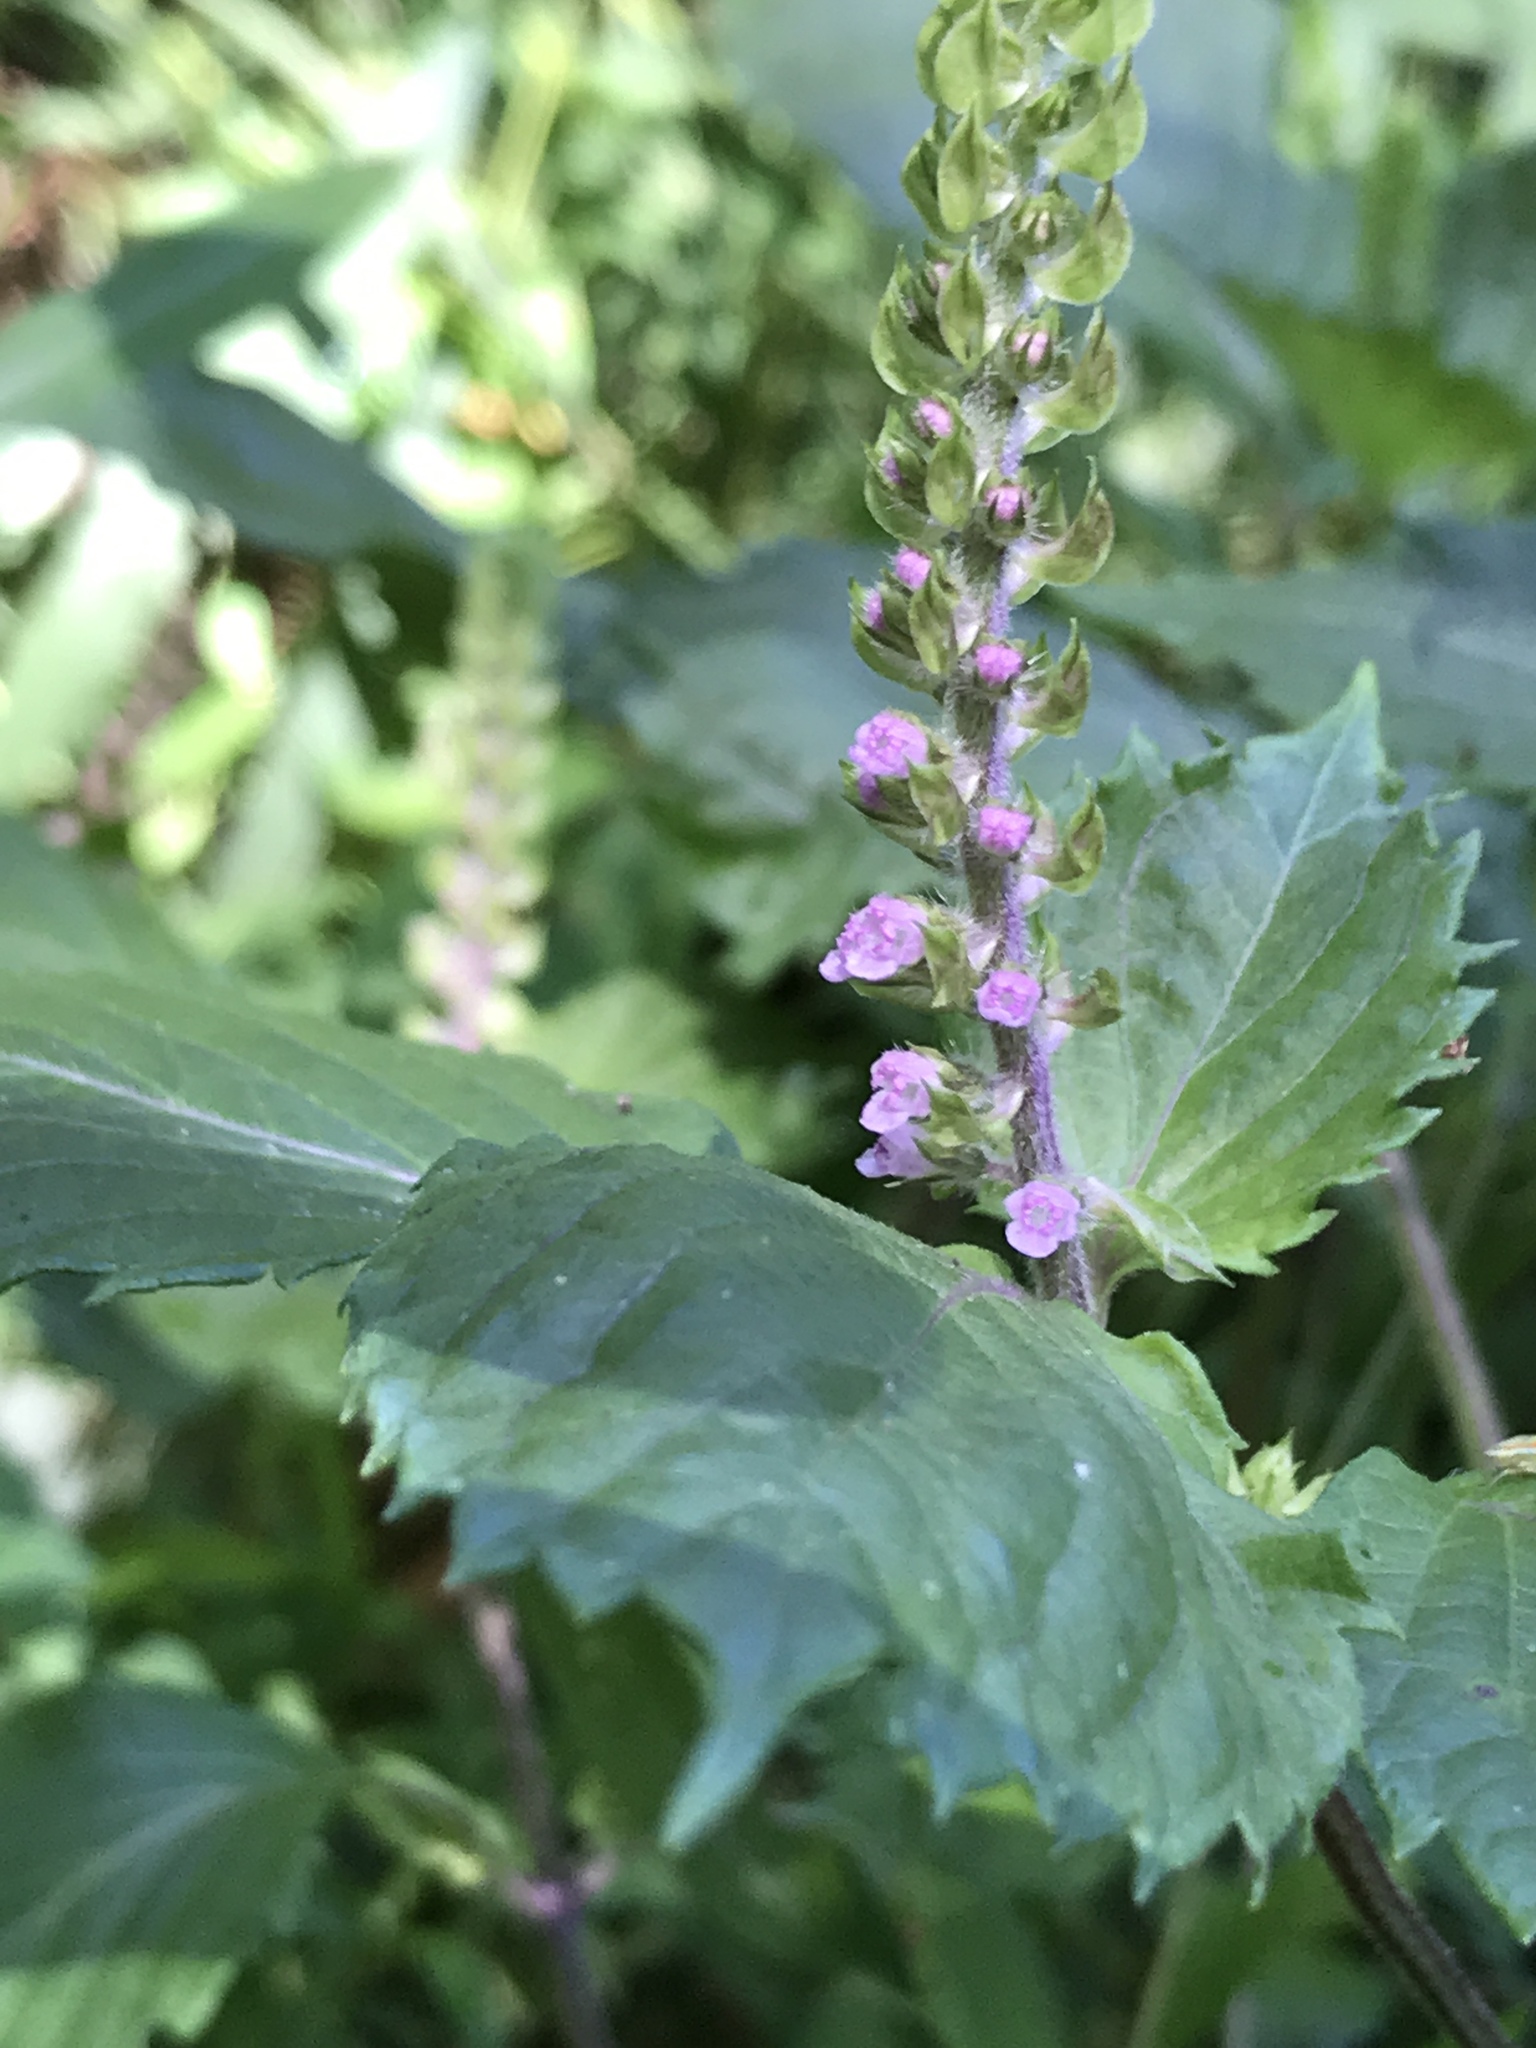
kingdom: Plantae
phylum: Tracheophyta
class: Magnoliopsida
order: Lamiales
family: Lamiaceae
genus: Perilla
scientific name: Perilla frutescens
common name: Perilla
